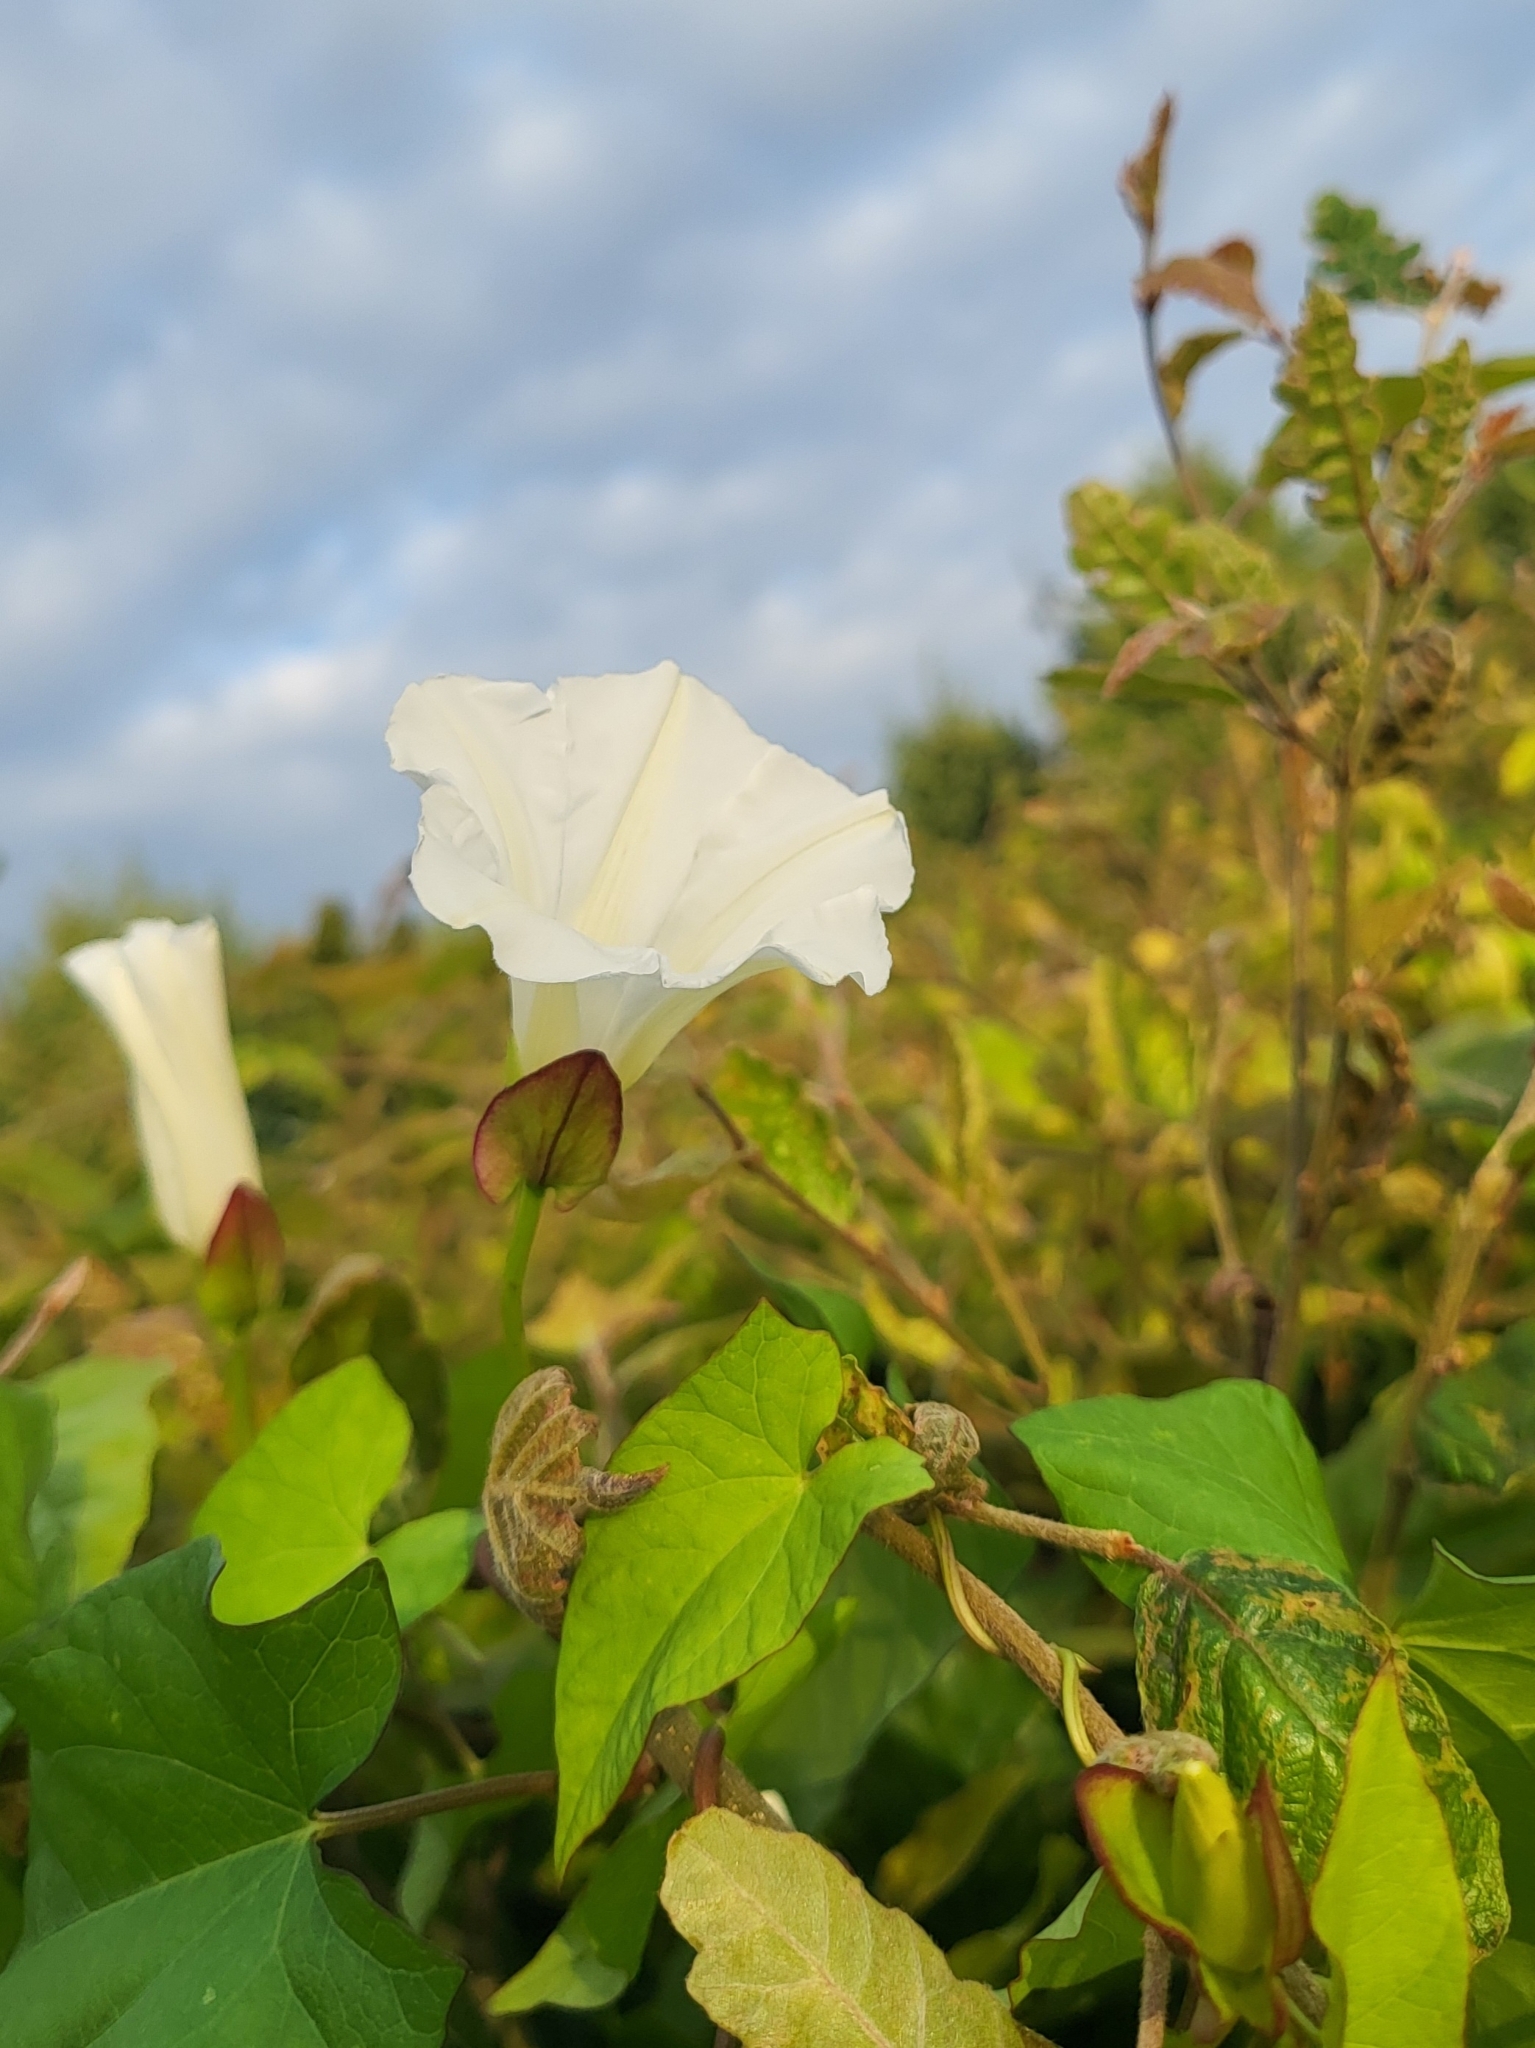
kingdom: Plantae
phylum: Tracheophyta
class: Magnoliopsida
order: Solanales
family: Convolvulaceae
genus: Calystegia
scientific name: Calystegia sepium
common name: Hedge bindweed
